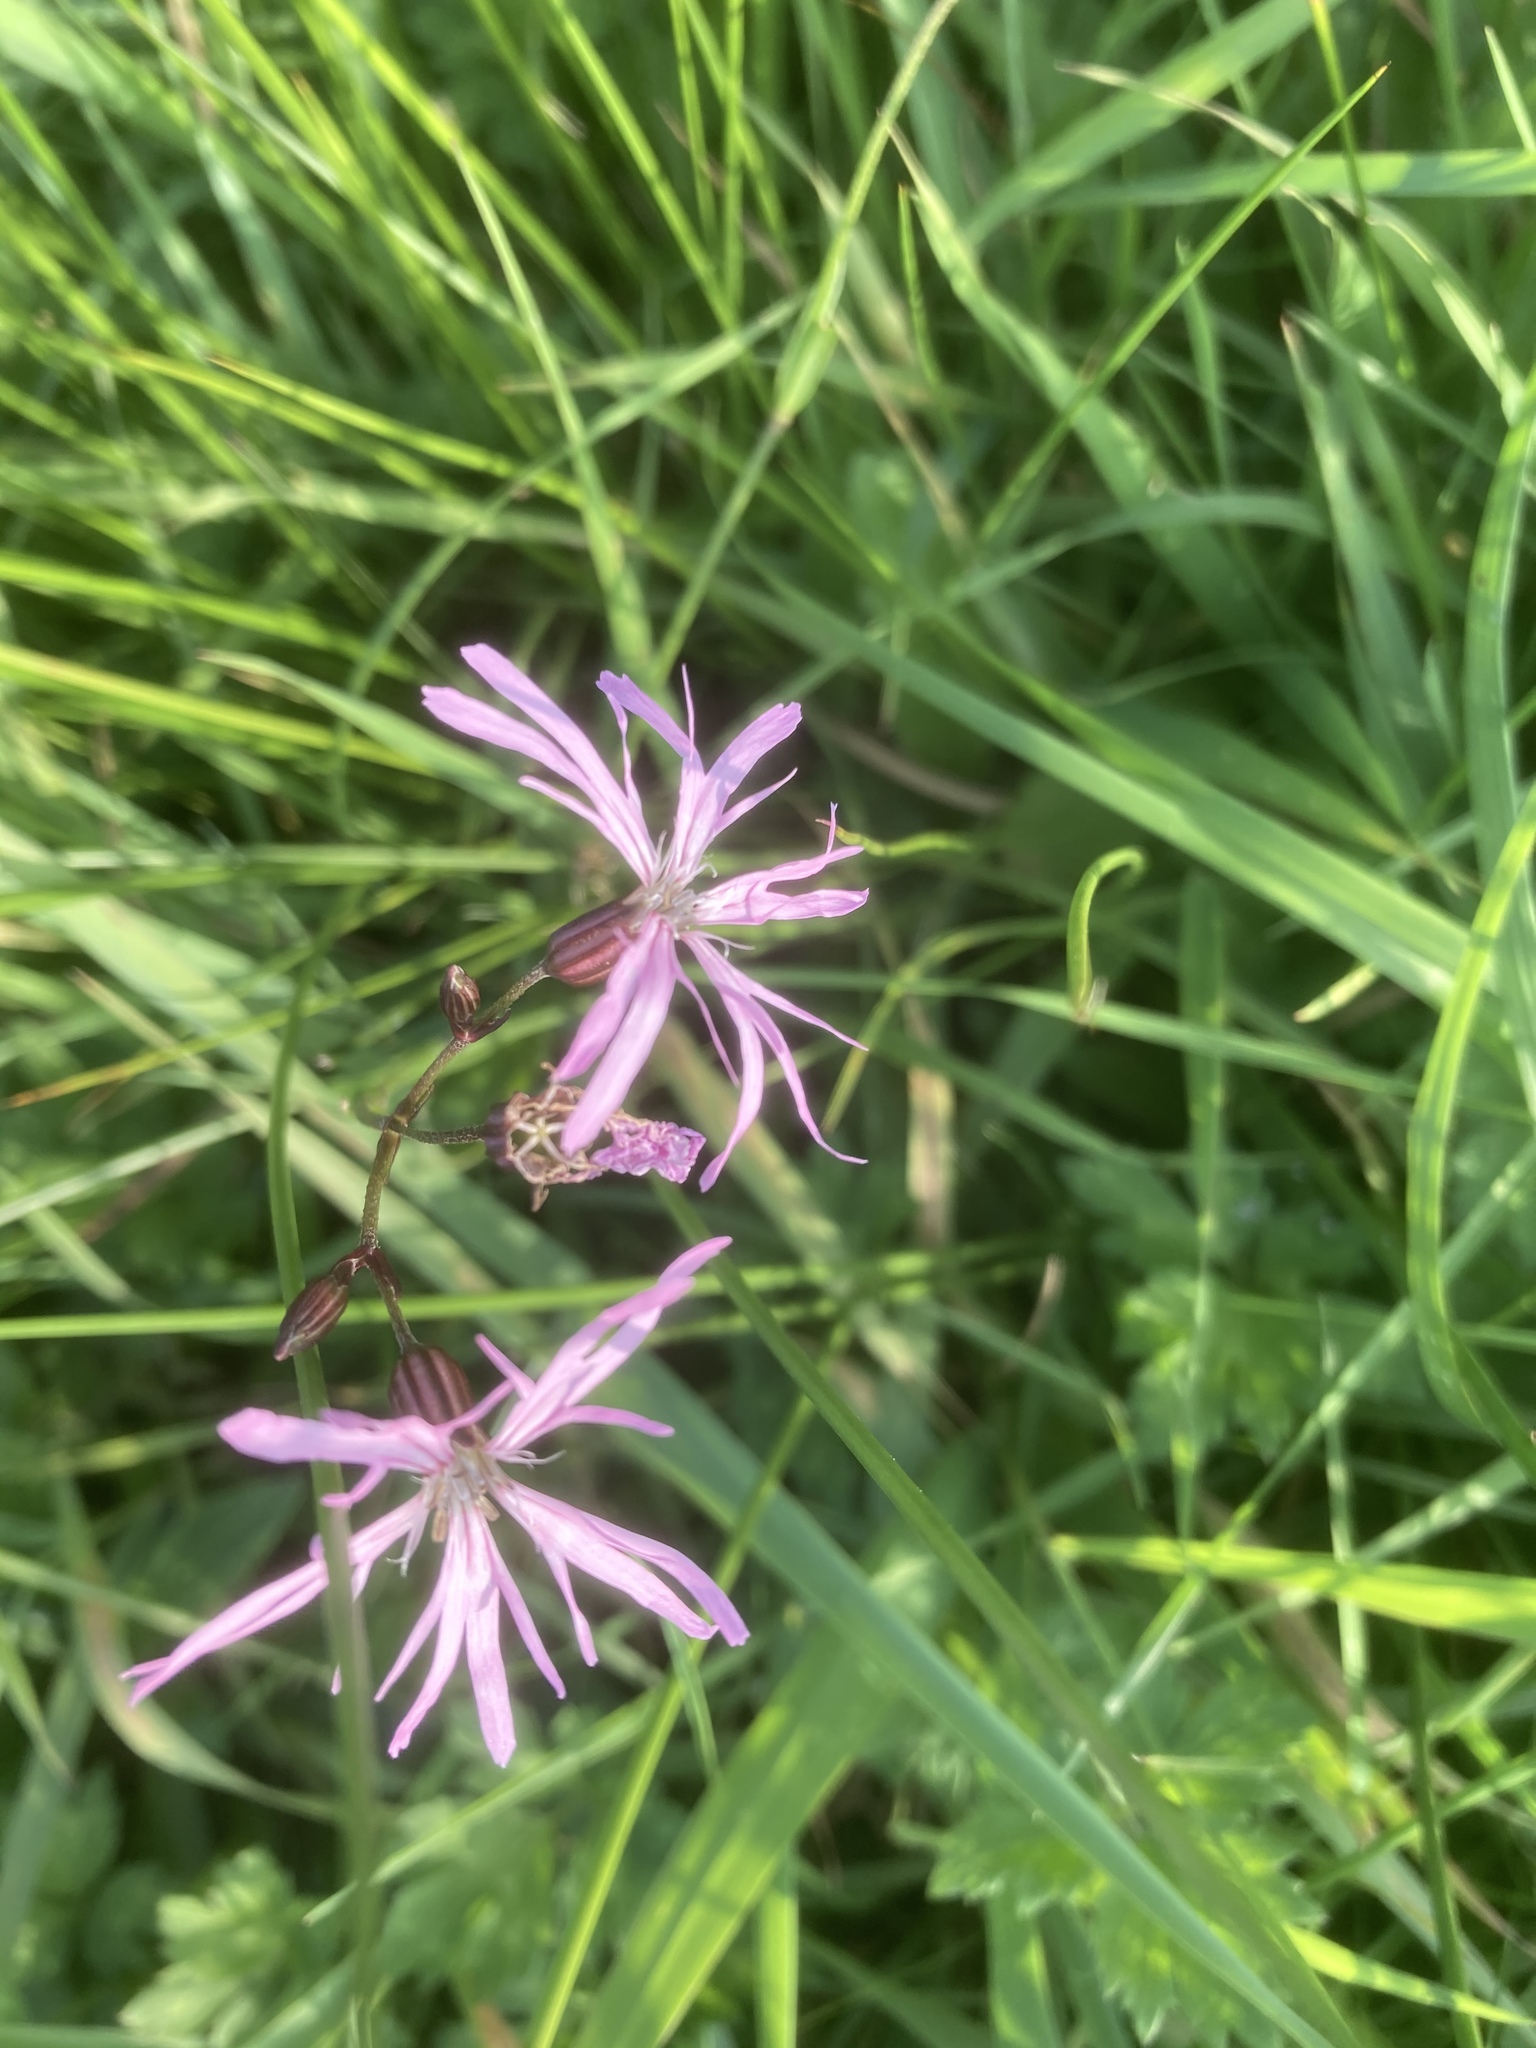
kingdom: Plantae
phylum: Tracheophyta
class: Magnoliopsida
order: Caryophyllales
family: Caryophyllaceae
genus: Silene
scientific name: Silene flos-cuculi
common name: Ragged-robin
